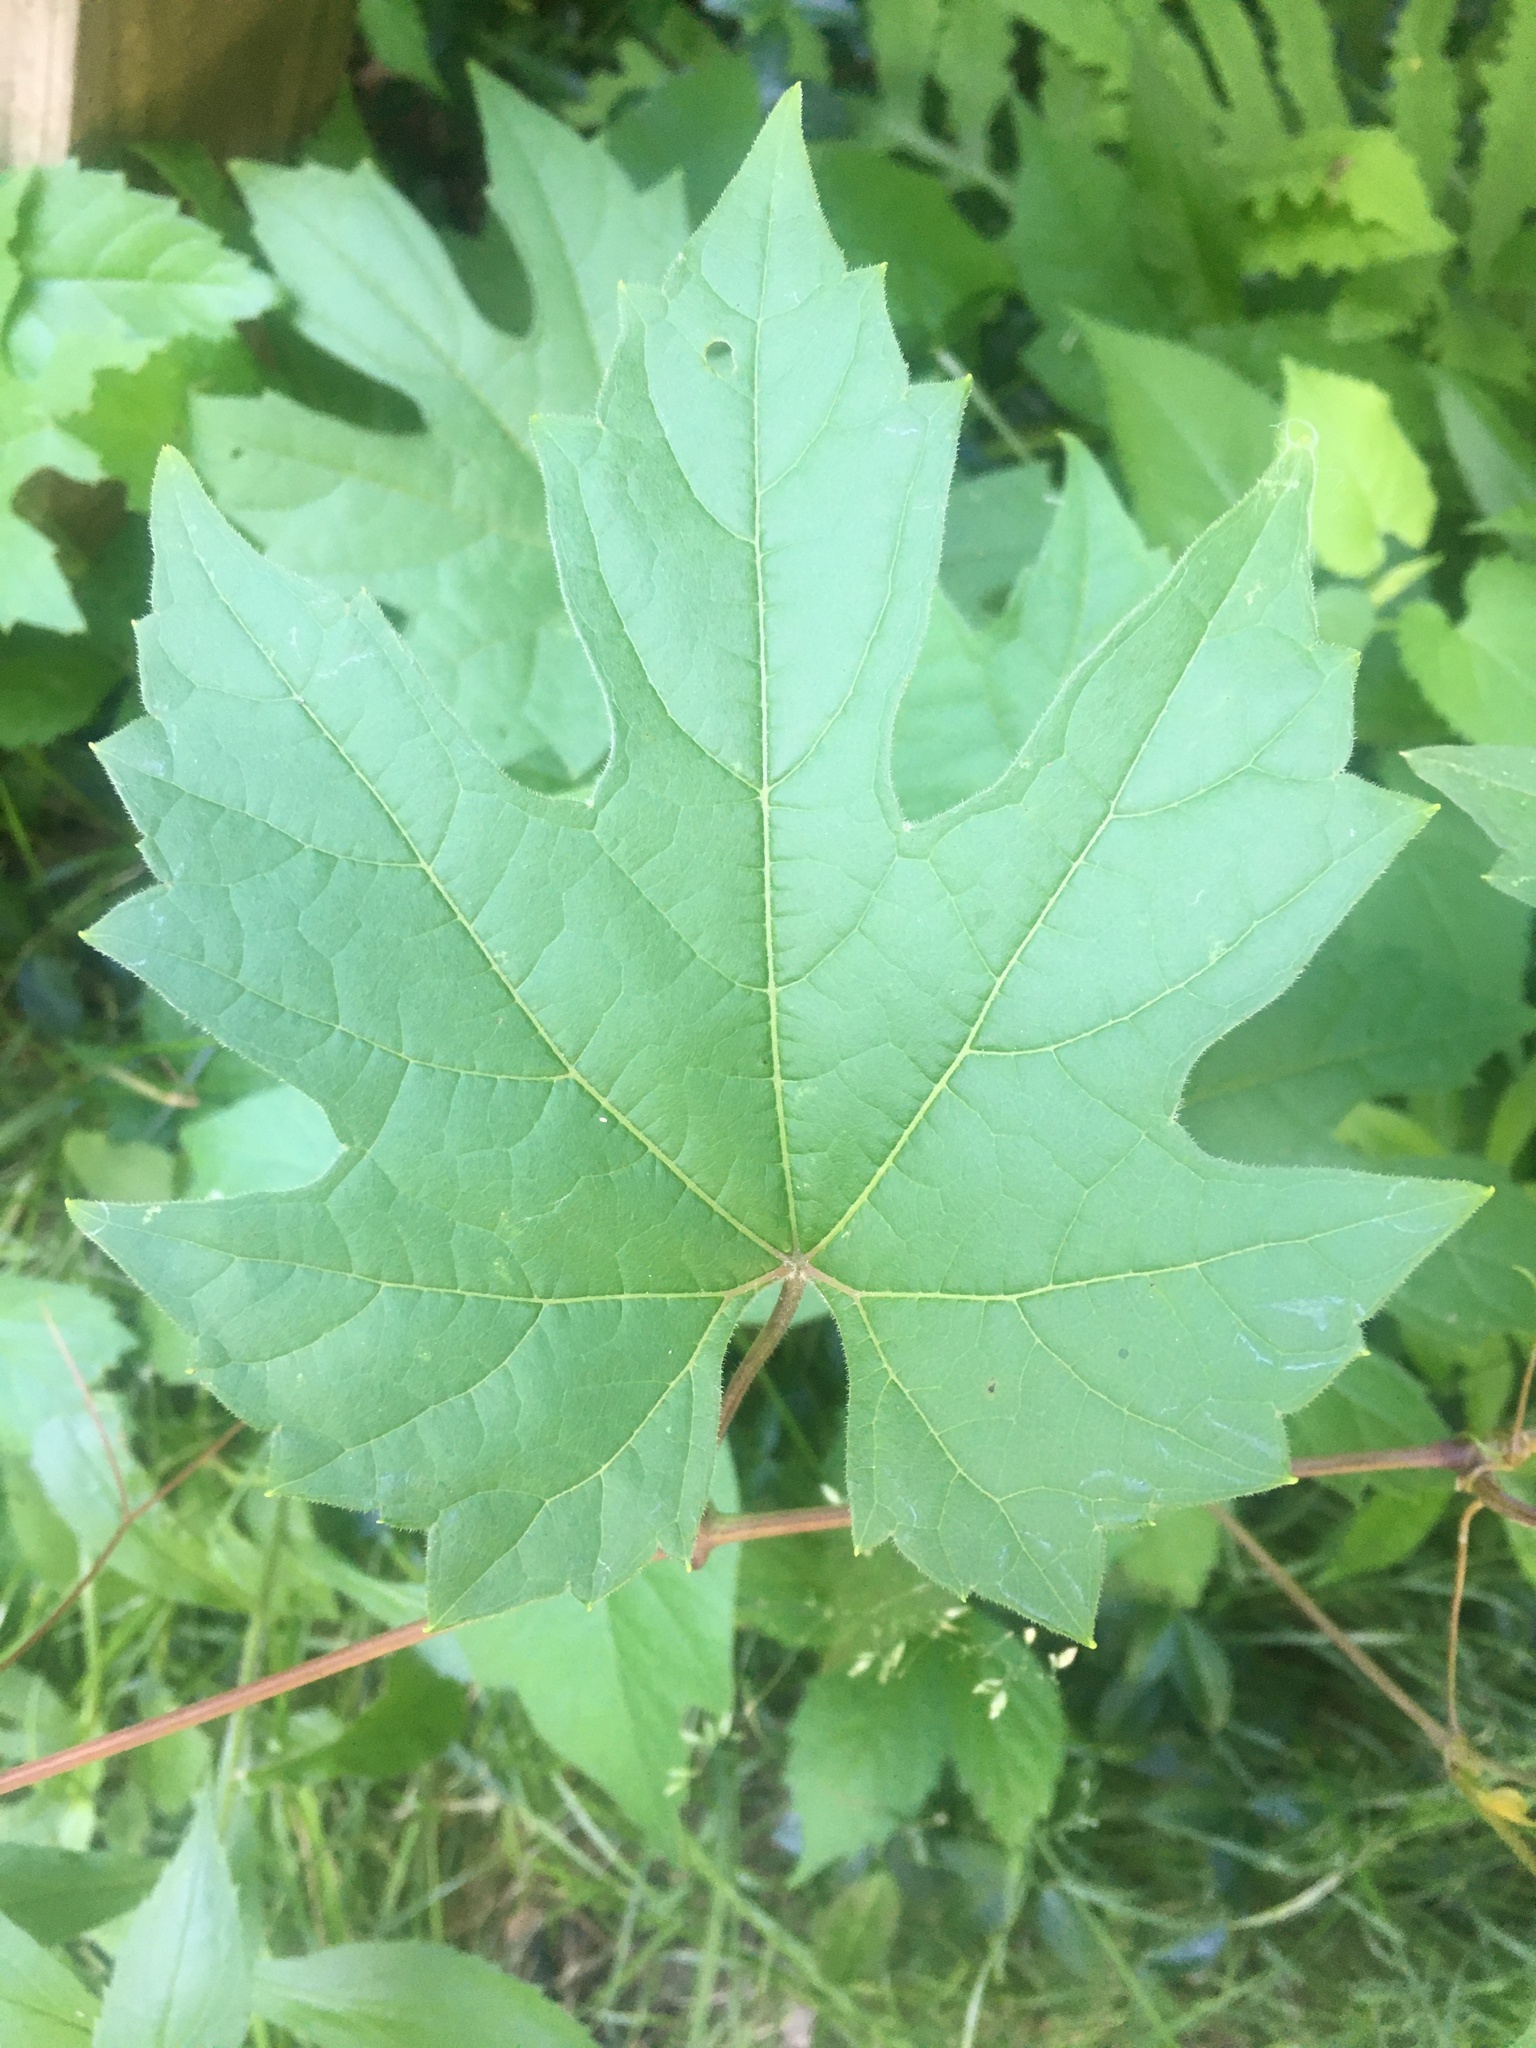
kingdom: Plantae
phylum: Tracheophyta
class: Magnoliopsida
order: Vitales
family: Vitaceae
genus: Vitis
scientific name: Vitis riparia
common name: Frost grape
